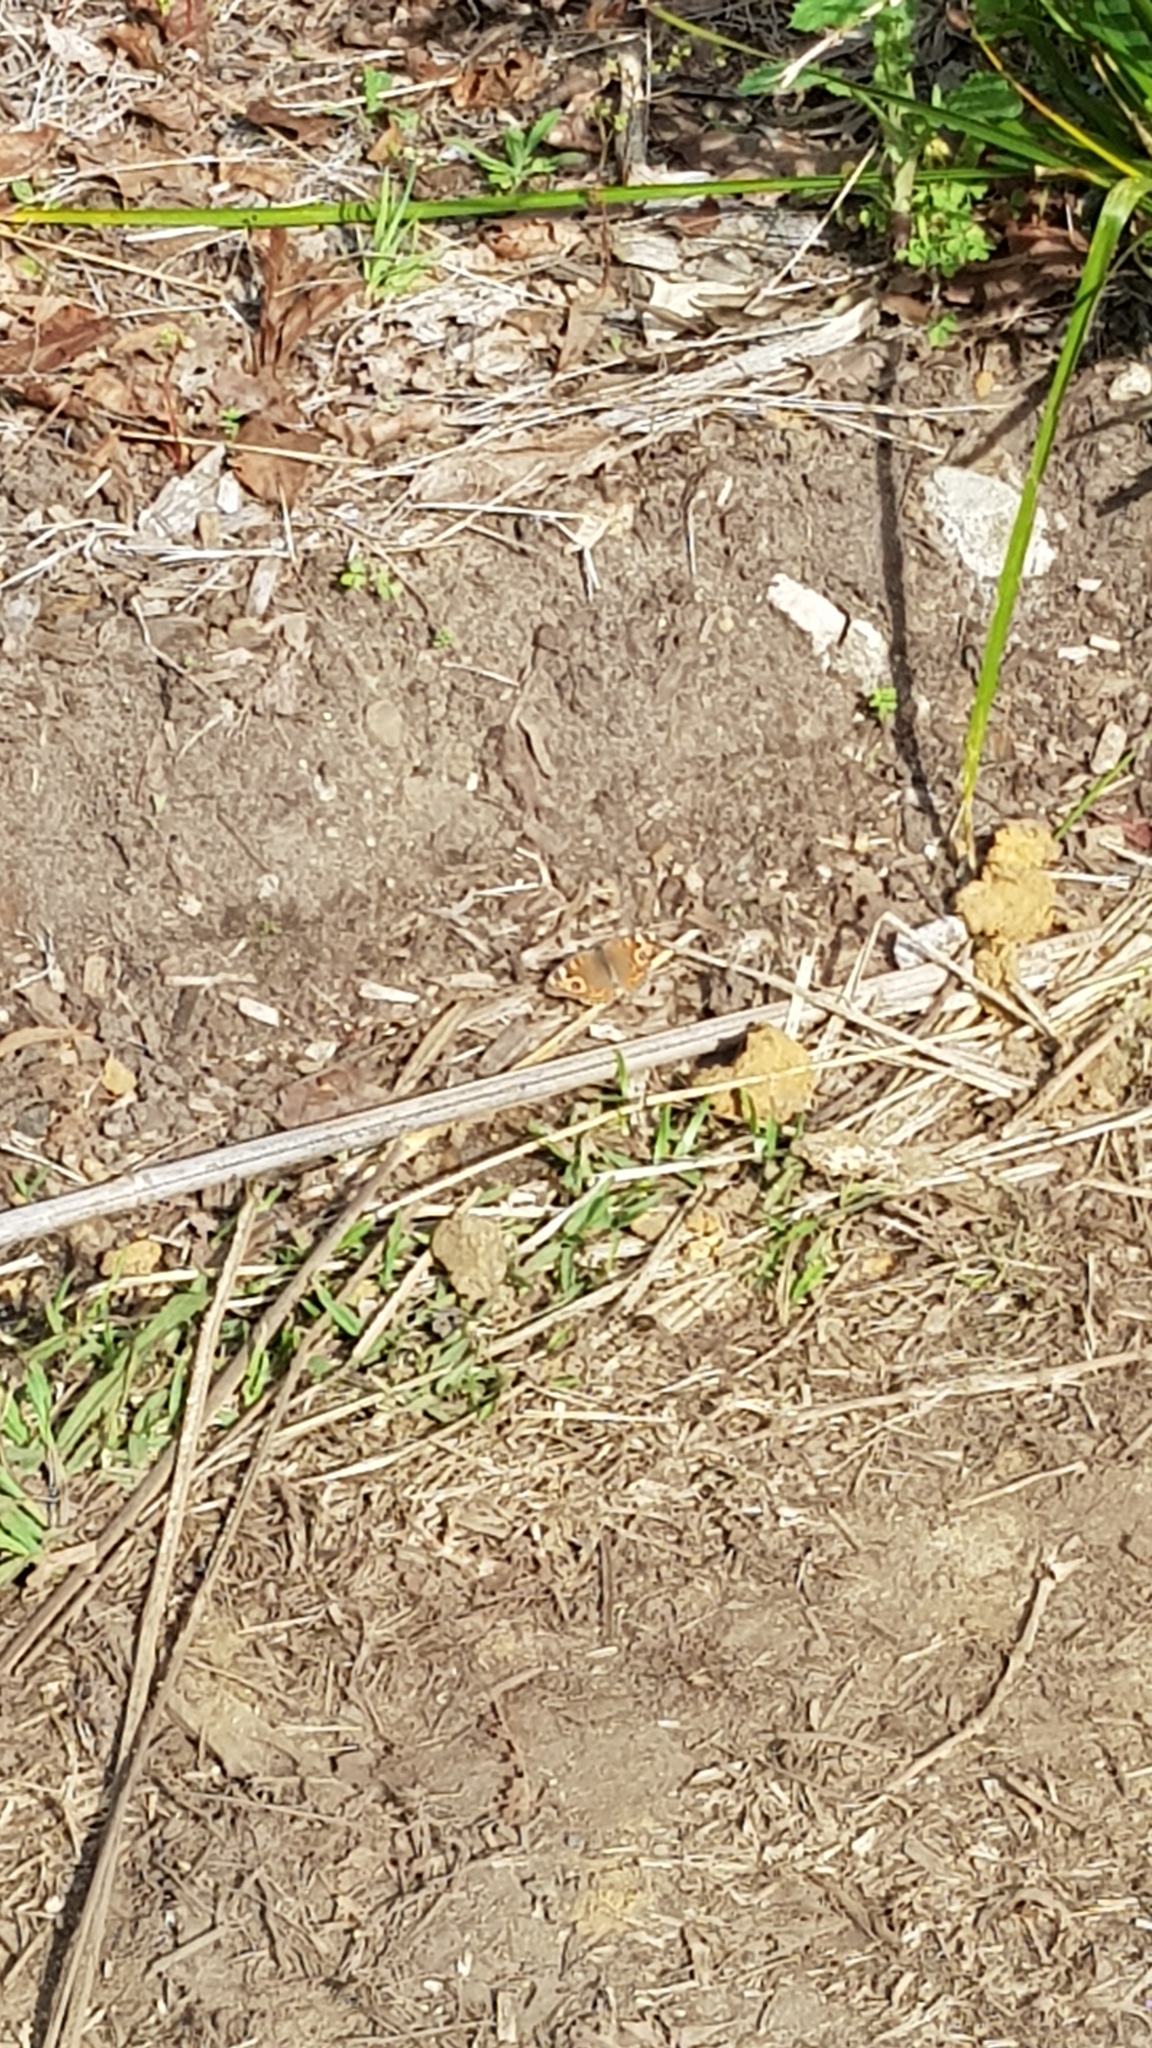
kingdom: Animalia
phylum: Arthropoda
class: Insecta
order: Lepidoptera
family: Nymphalidae
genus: Junonia
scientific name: Junonia villida
